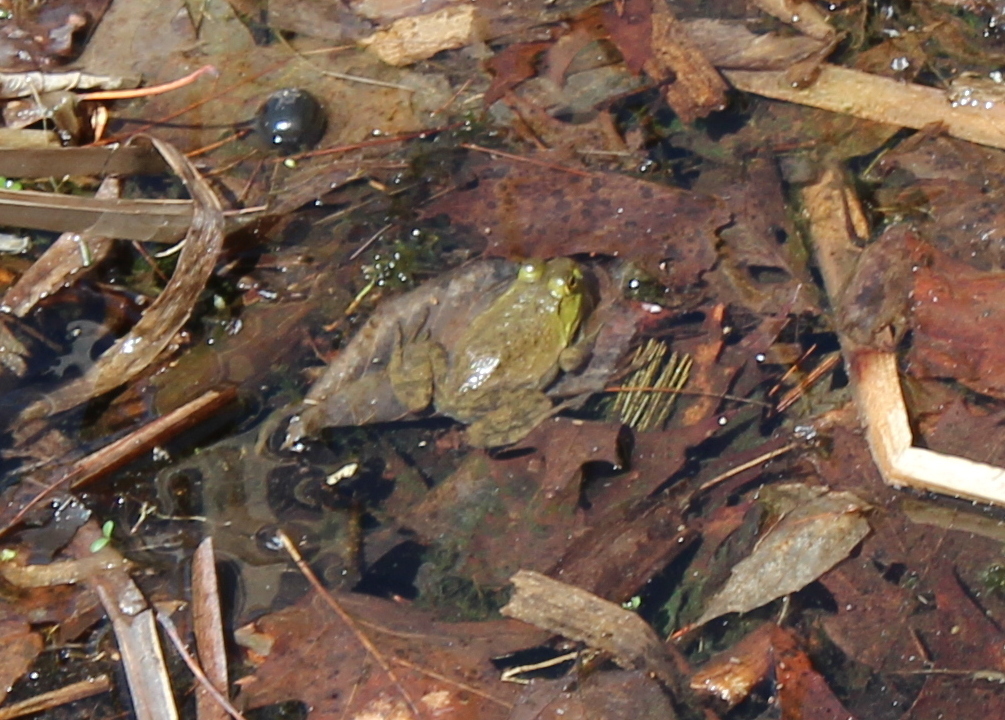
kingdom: Animalia
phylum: Chordata
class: Amphibia
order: Anura
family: Ranidae
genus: Lithobates
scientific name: Lithobates catesbeianus
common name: American bullfrog
